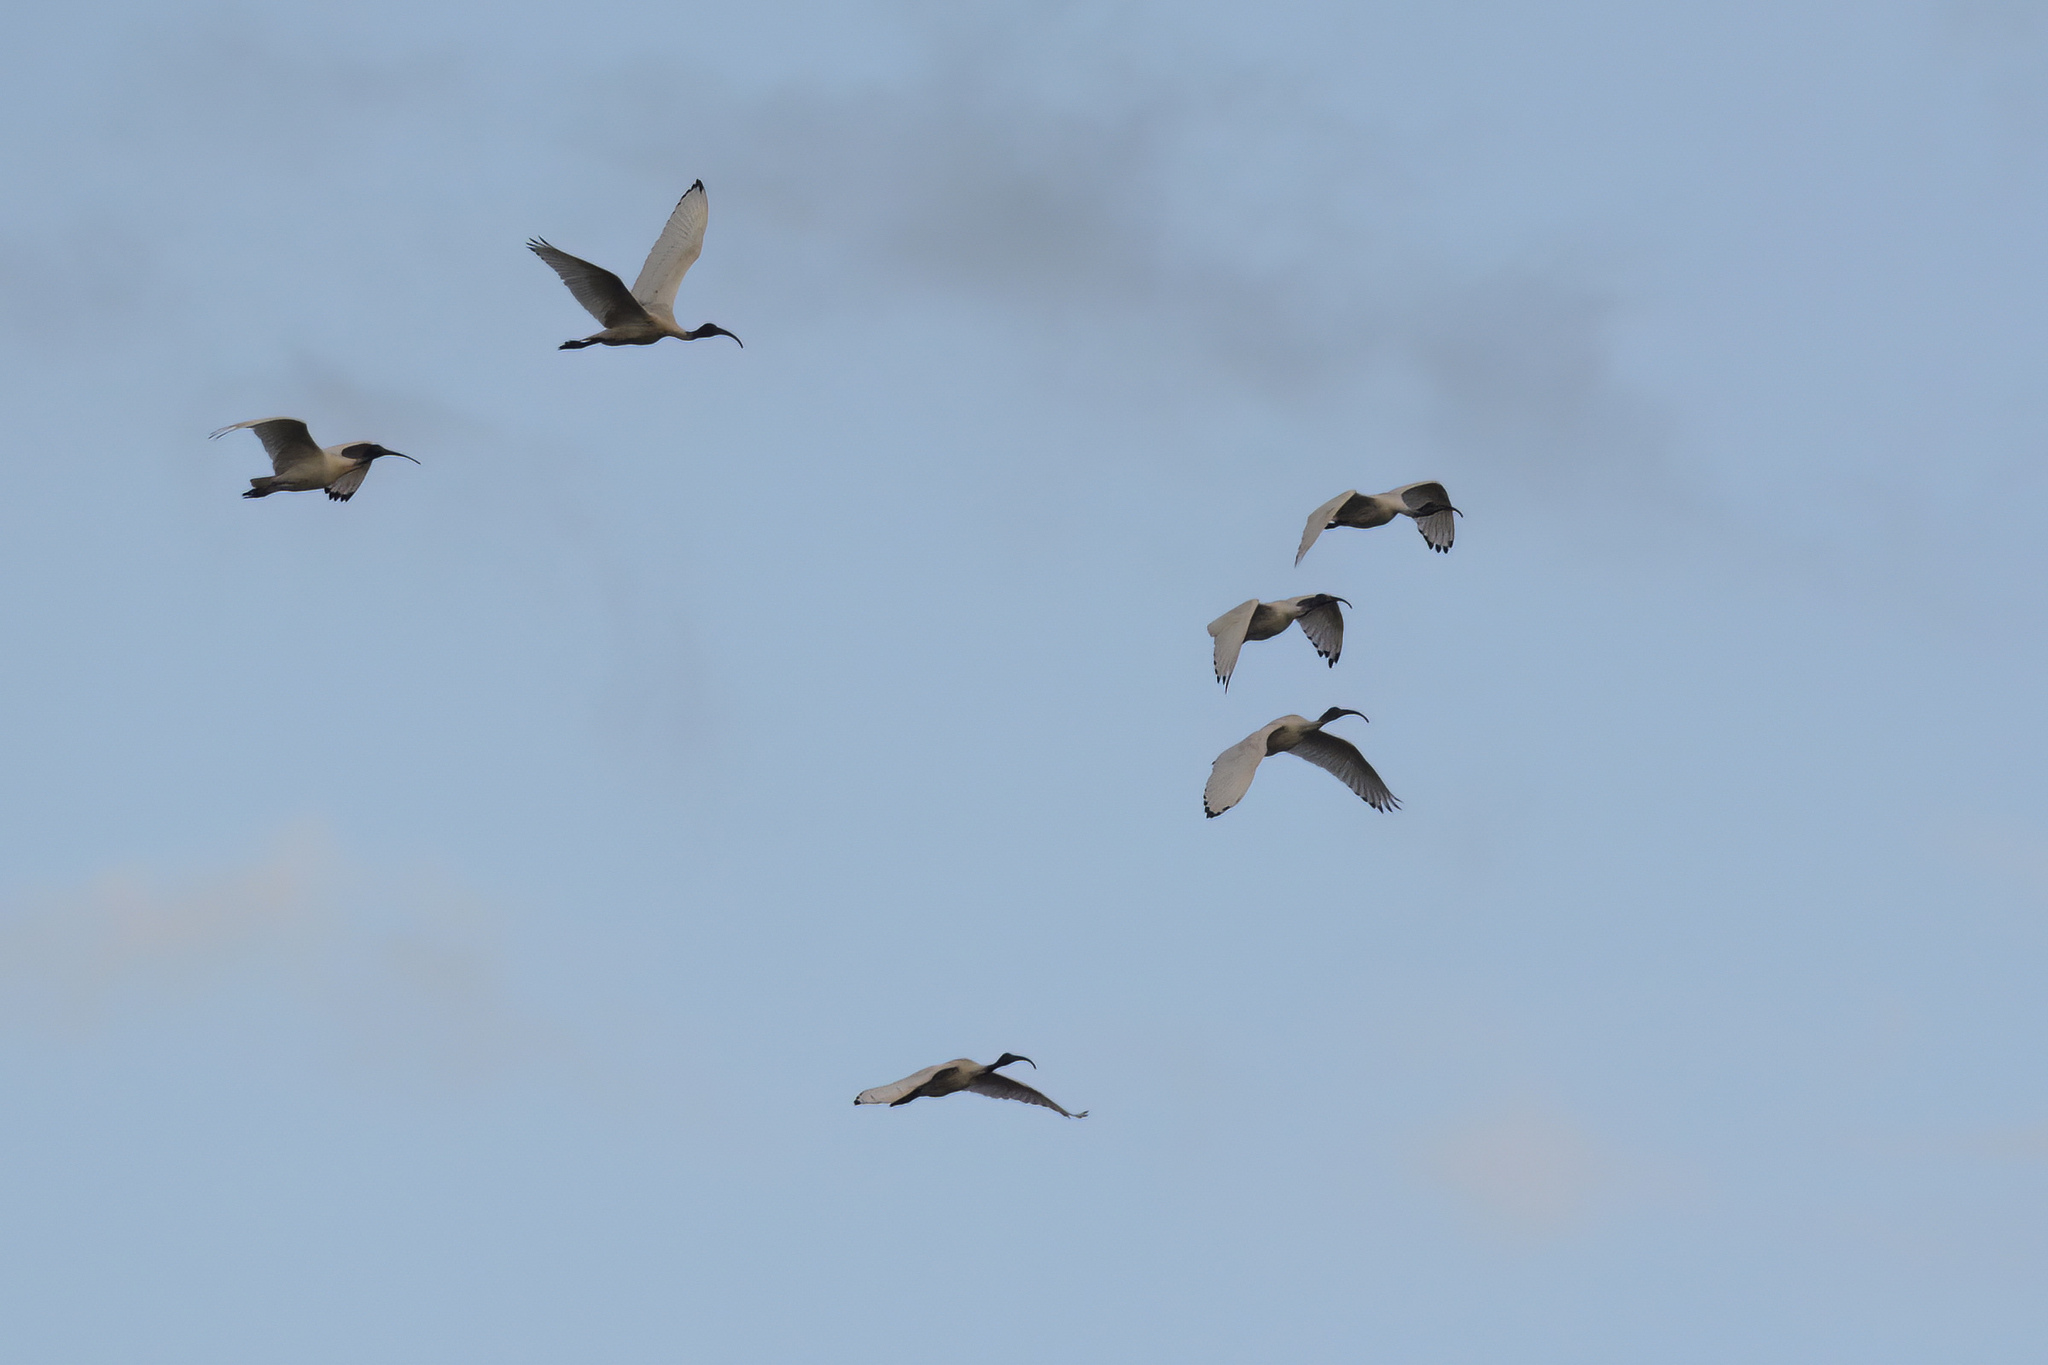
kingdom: Animalia
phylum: Chordata
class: Aves
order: Pelecaniformes
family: Threskiornithidae
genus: Threskiornis
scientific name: Threskiornis molucca
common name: Australian white ibis
